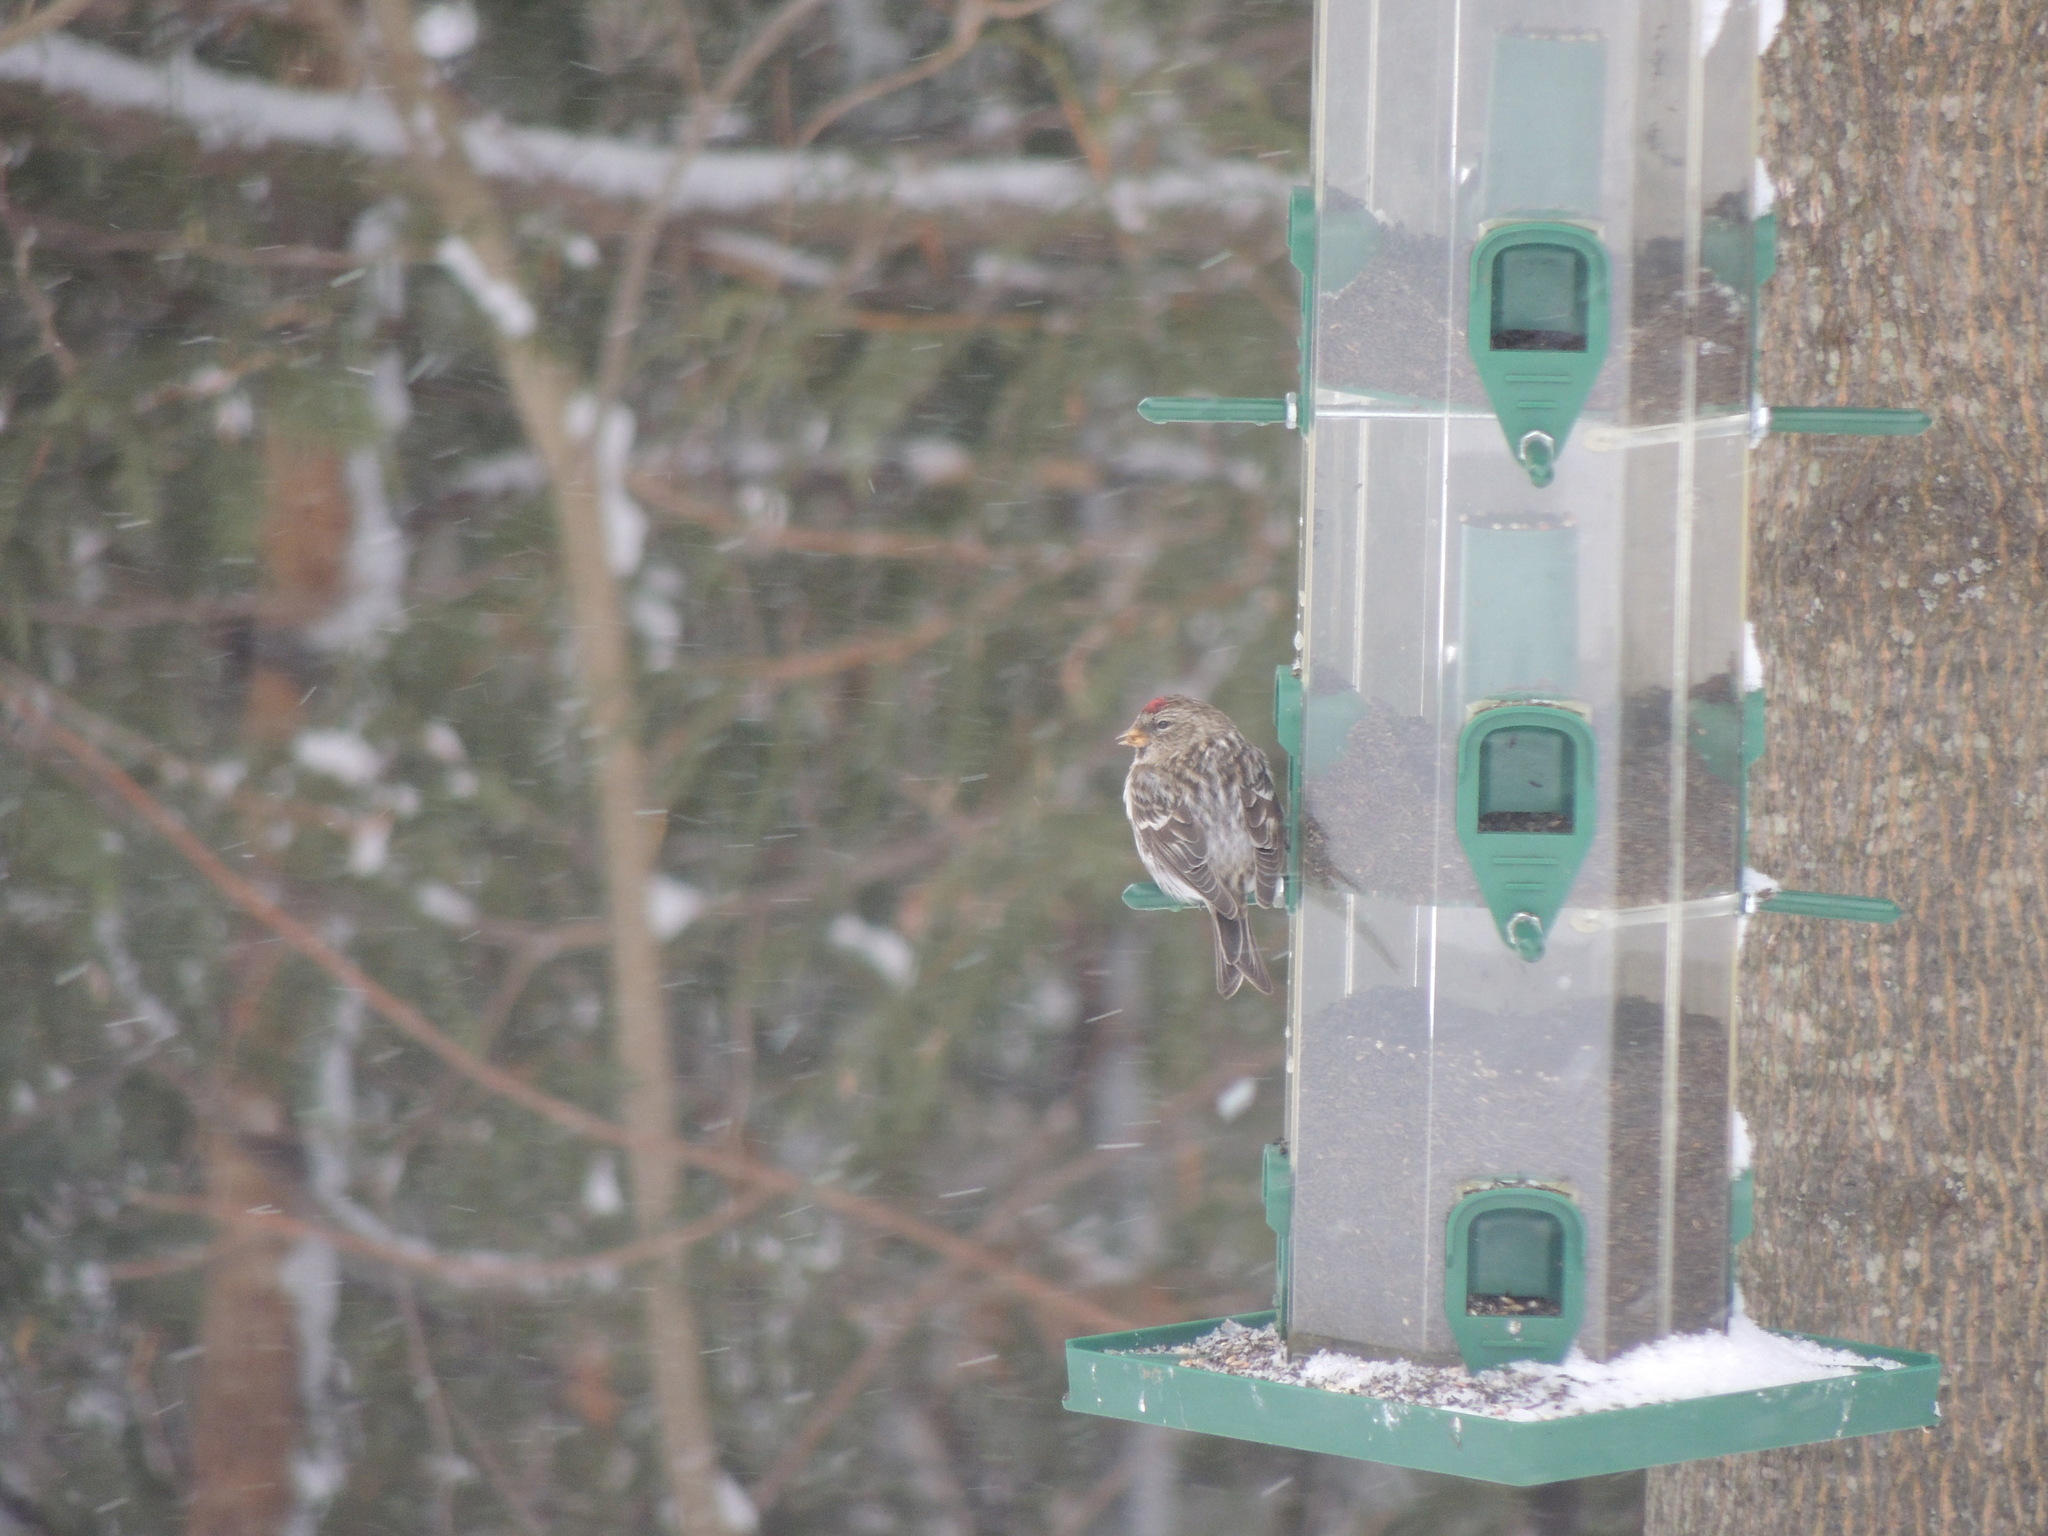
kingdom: Animalia
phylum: Chordata
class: Aves
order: Passeriformes
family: Fringillidae
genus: Acanthis
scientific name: Acanthis flammea
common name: Common redpoll
